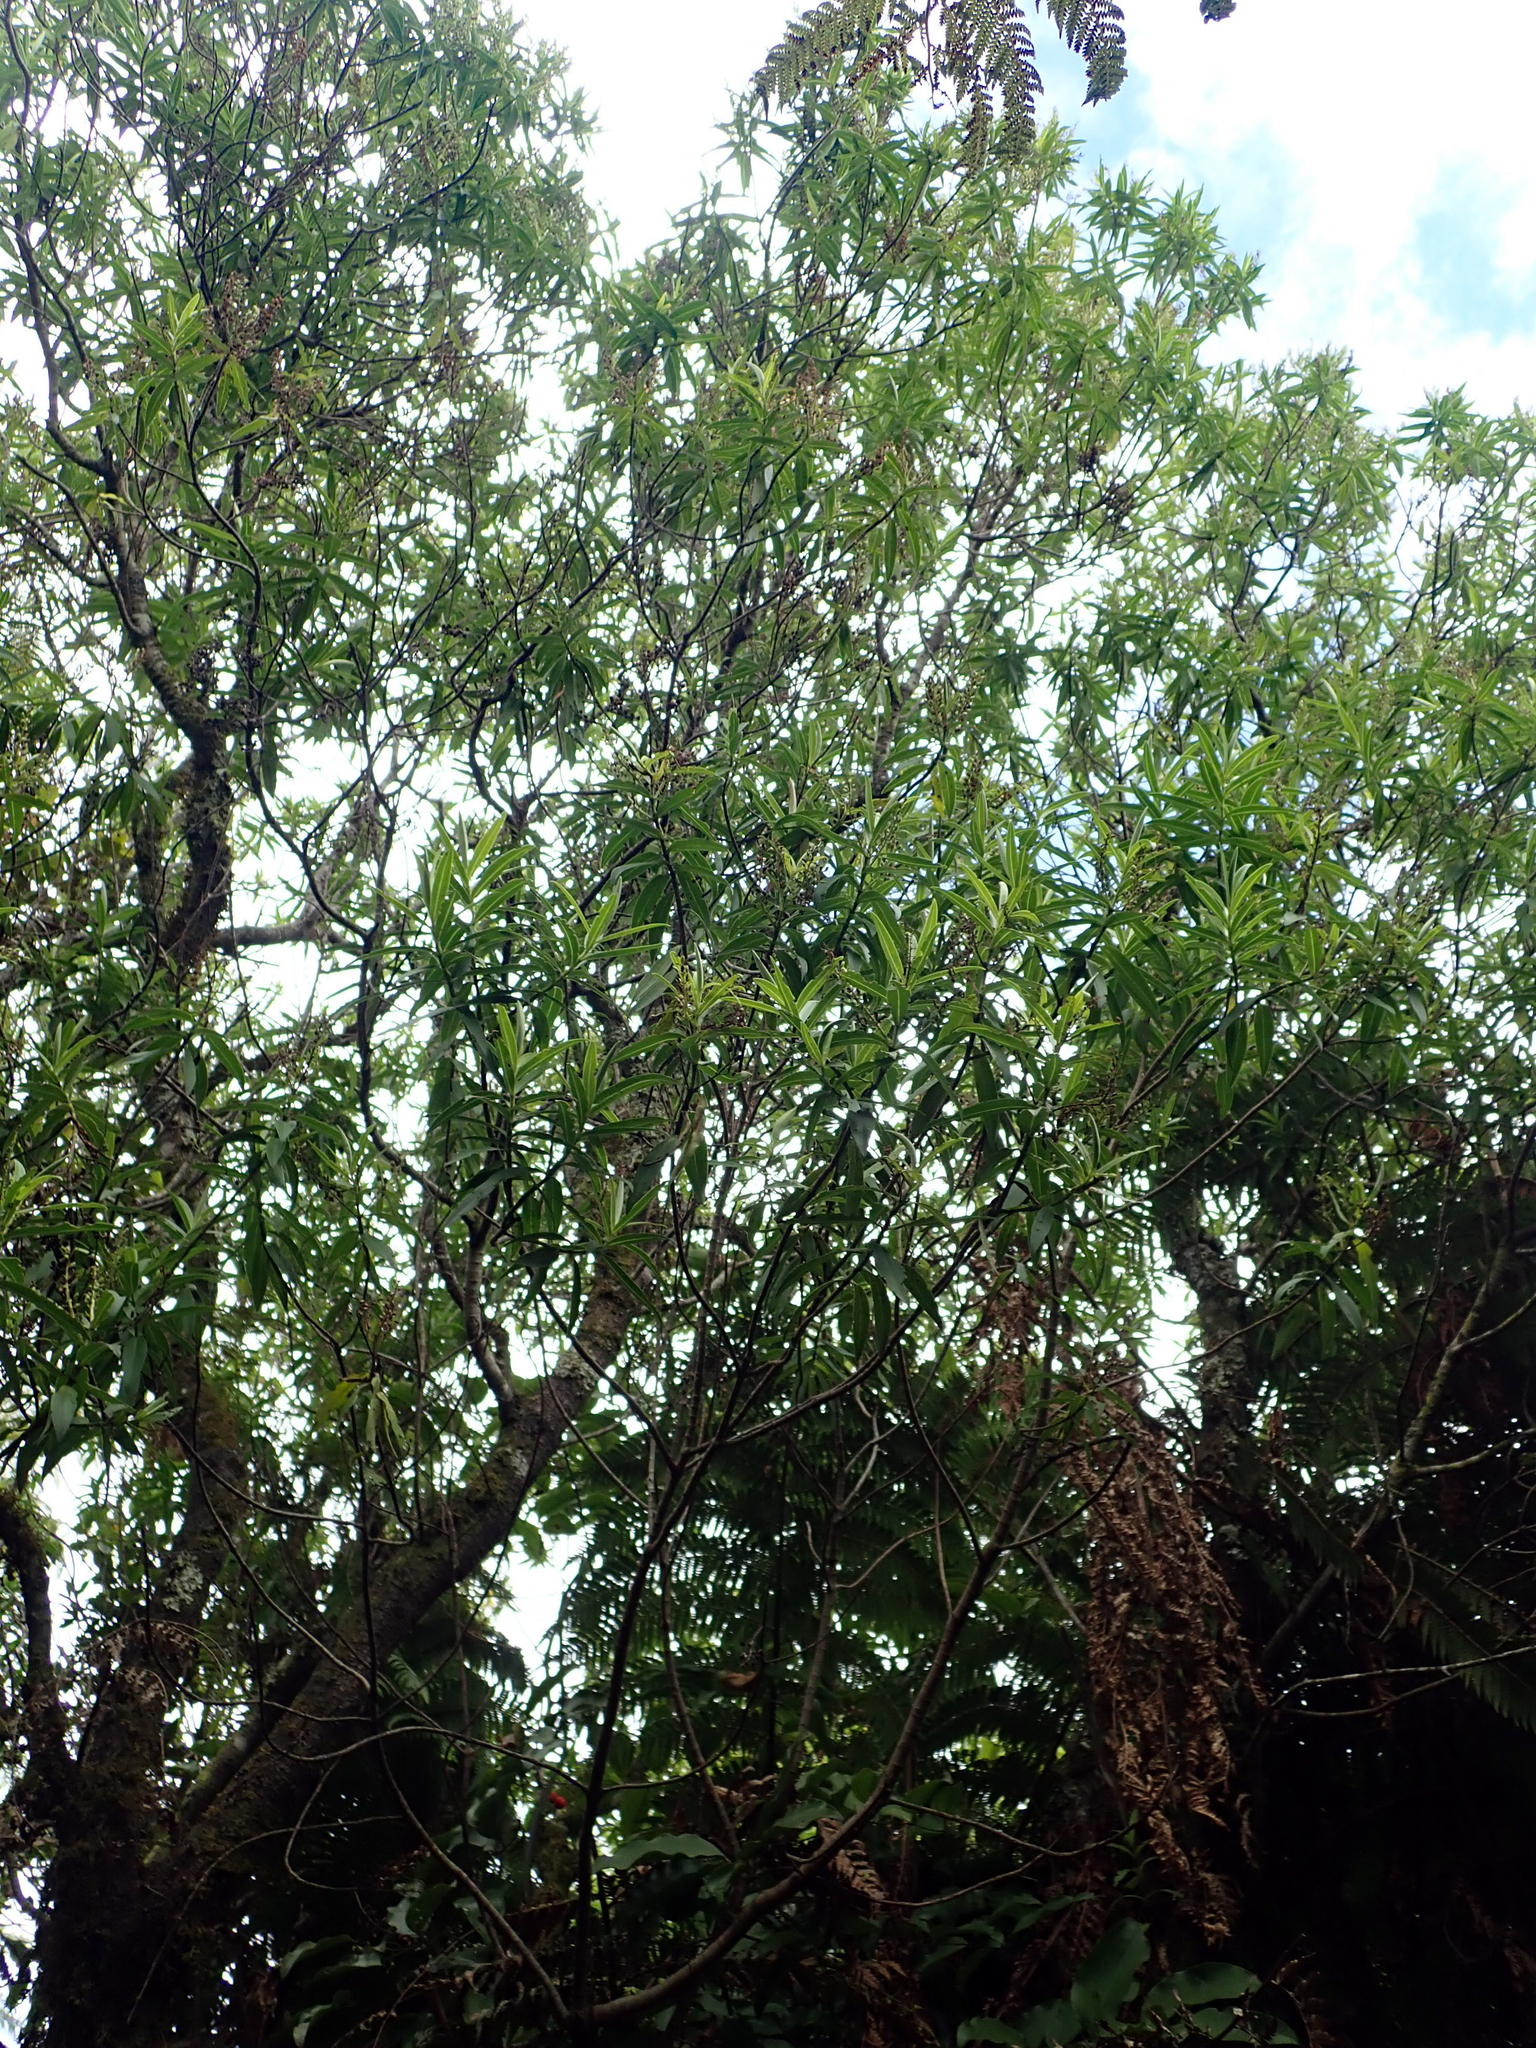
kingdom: Plantae
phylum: Tracheophyta
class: Magnoliopsida
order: Lamiales
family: Plantaginaceae
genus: Veronica
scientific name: Veronica barkeri
